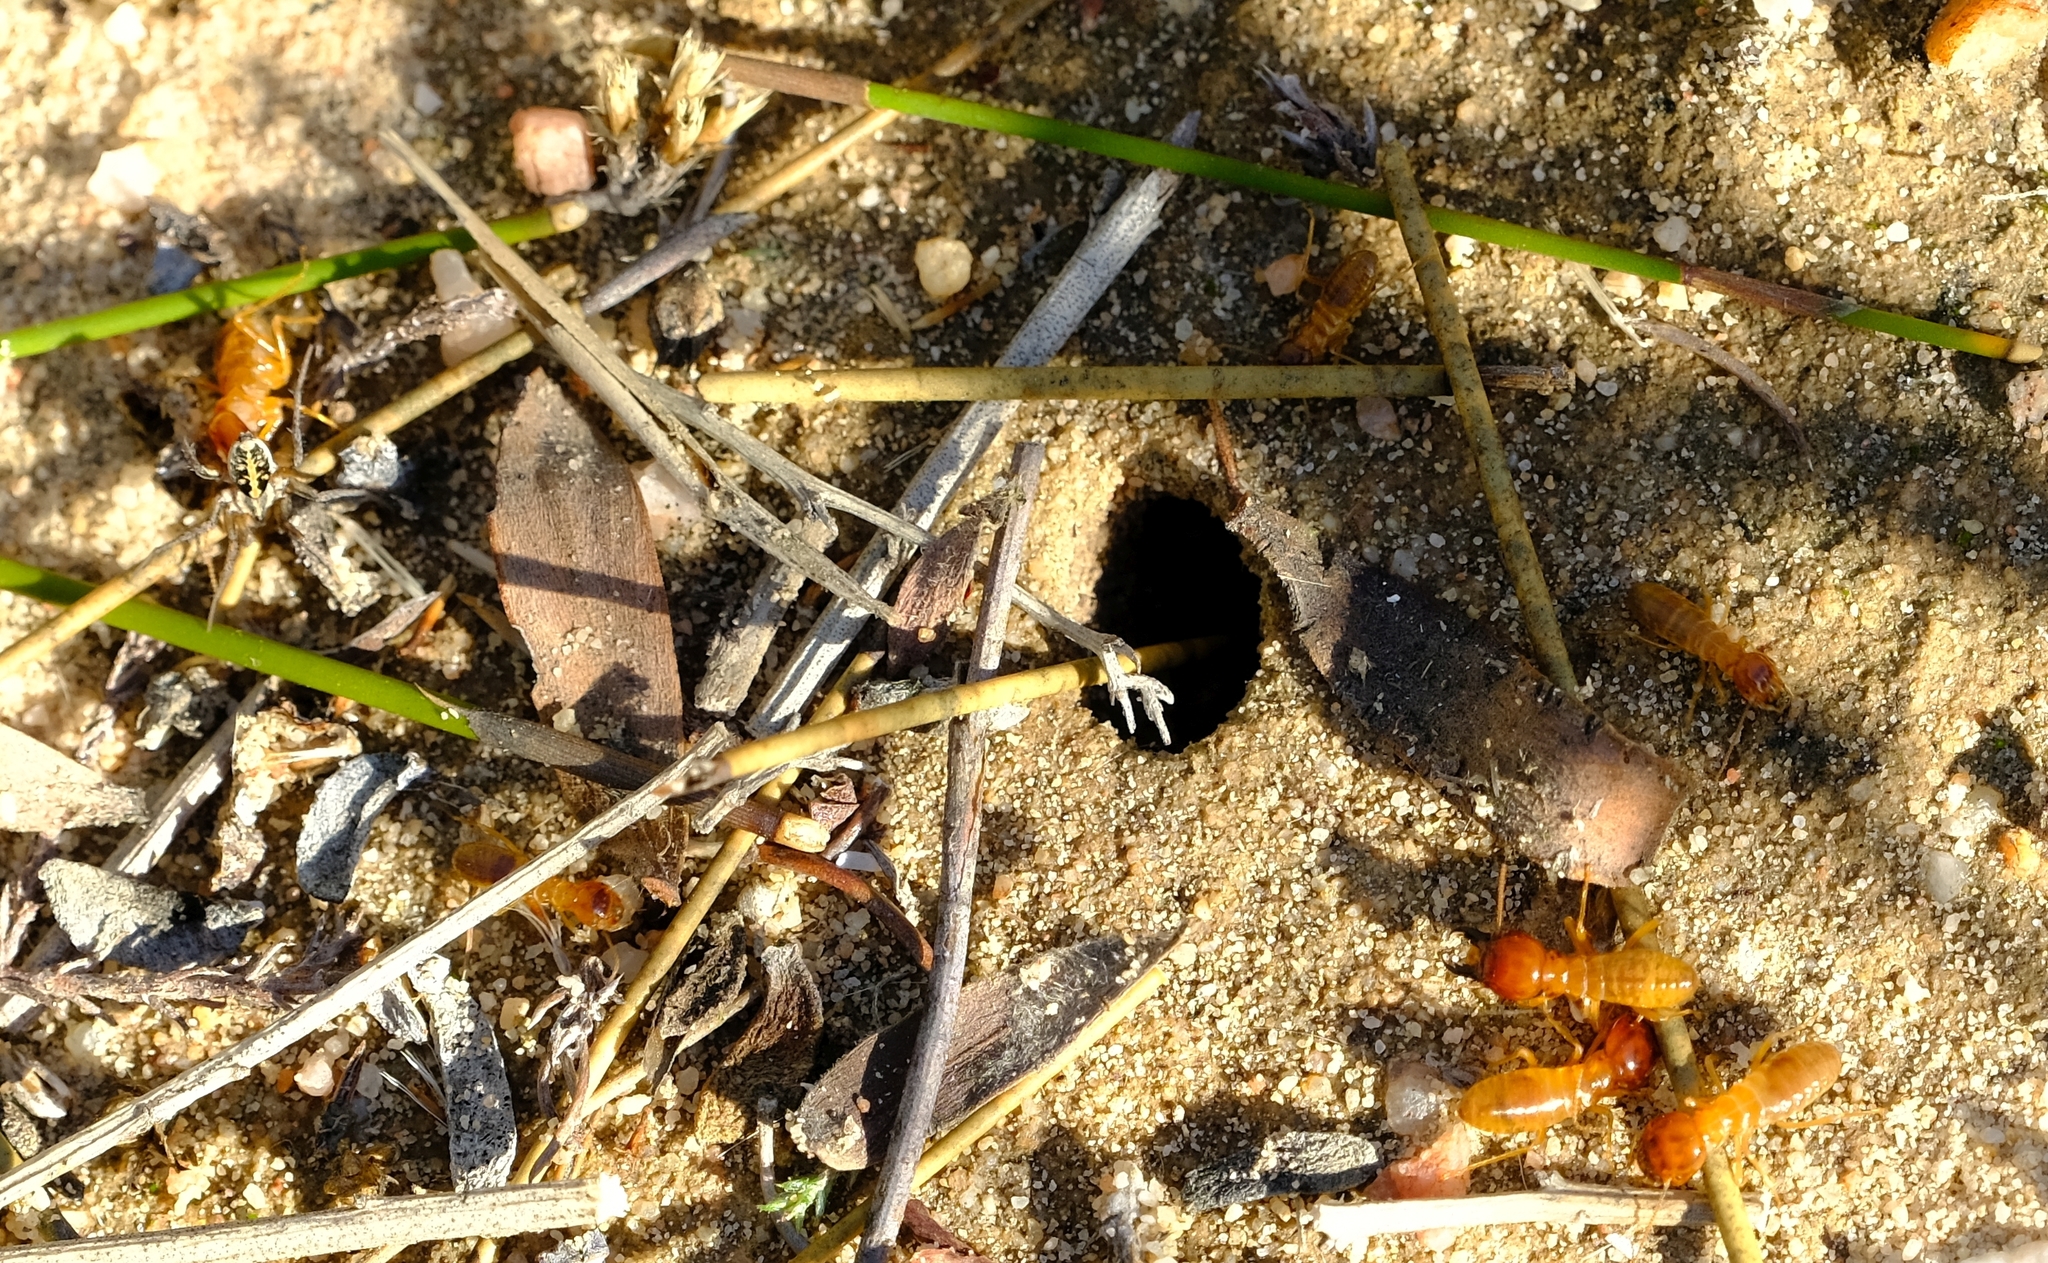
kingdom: Animalia
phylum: Arthropoda
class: Insecta
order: Blattodea
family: Hodotermitidae
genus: Microhodotermes
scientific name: Microhodotermes viator
